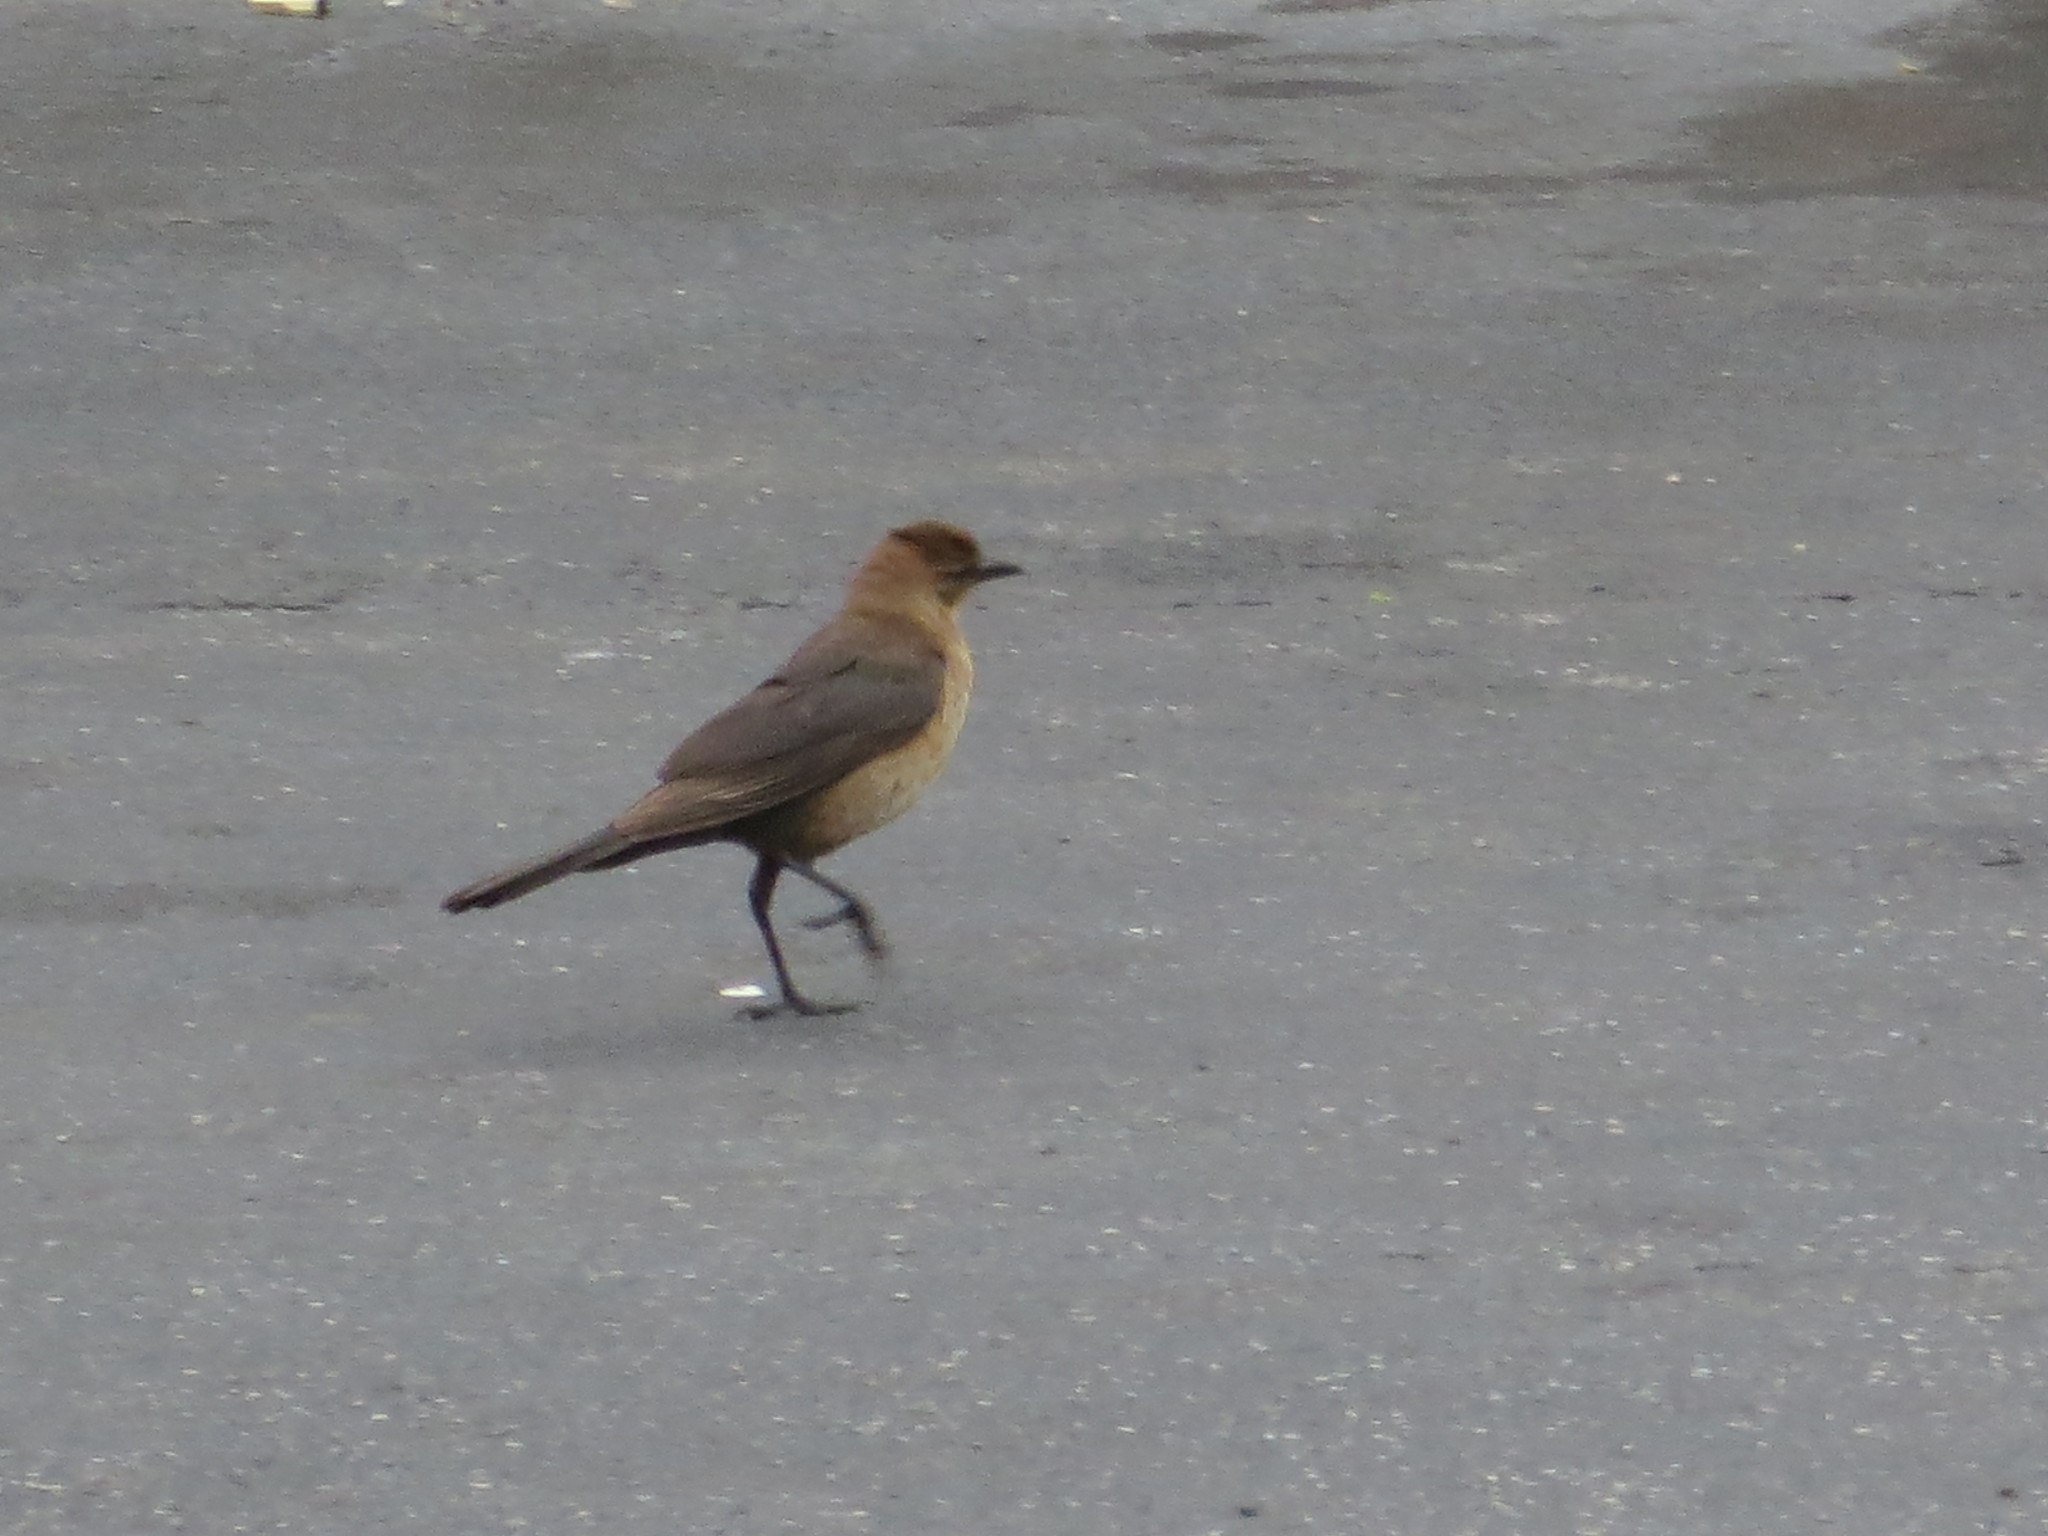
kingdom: Animalia
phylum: Chordata
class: Aves
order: Passeriformes
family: Icteridae
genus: Quiscalus
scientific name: Quiscalus major
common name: Boat-tailed grackle
